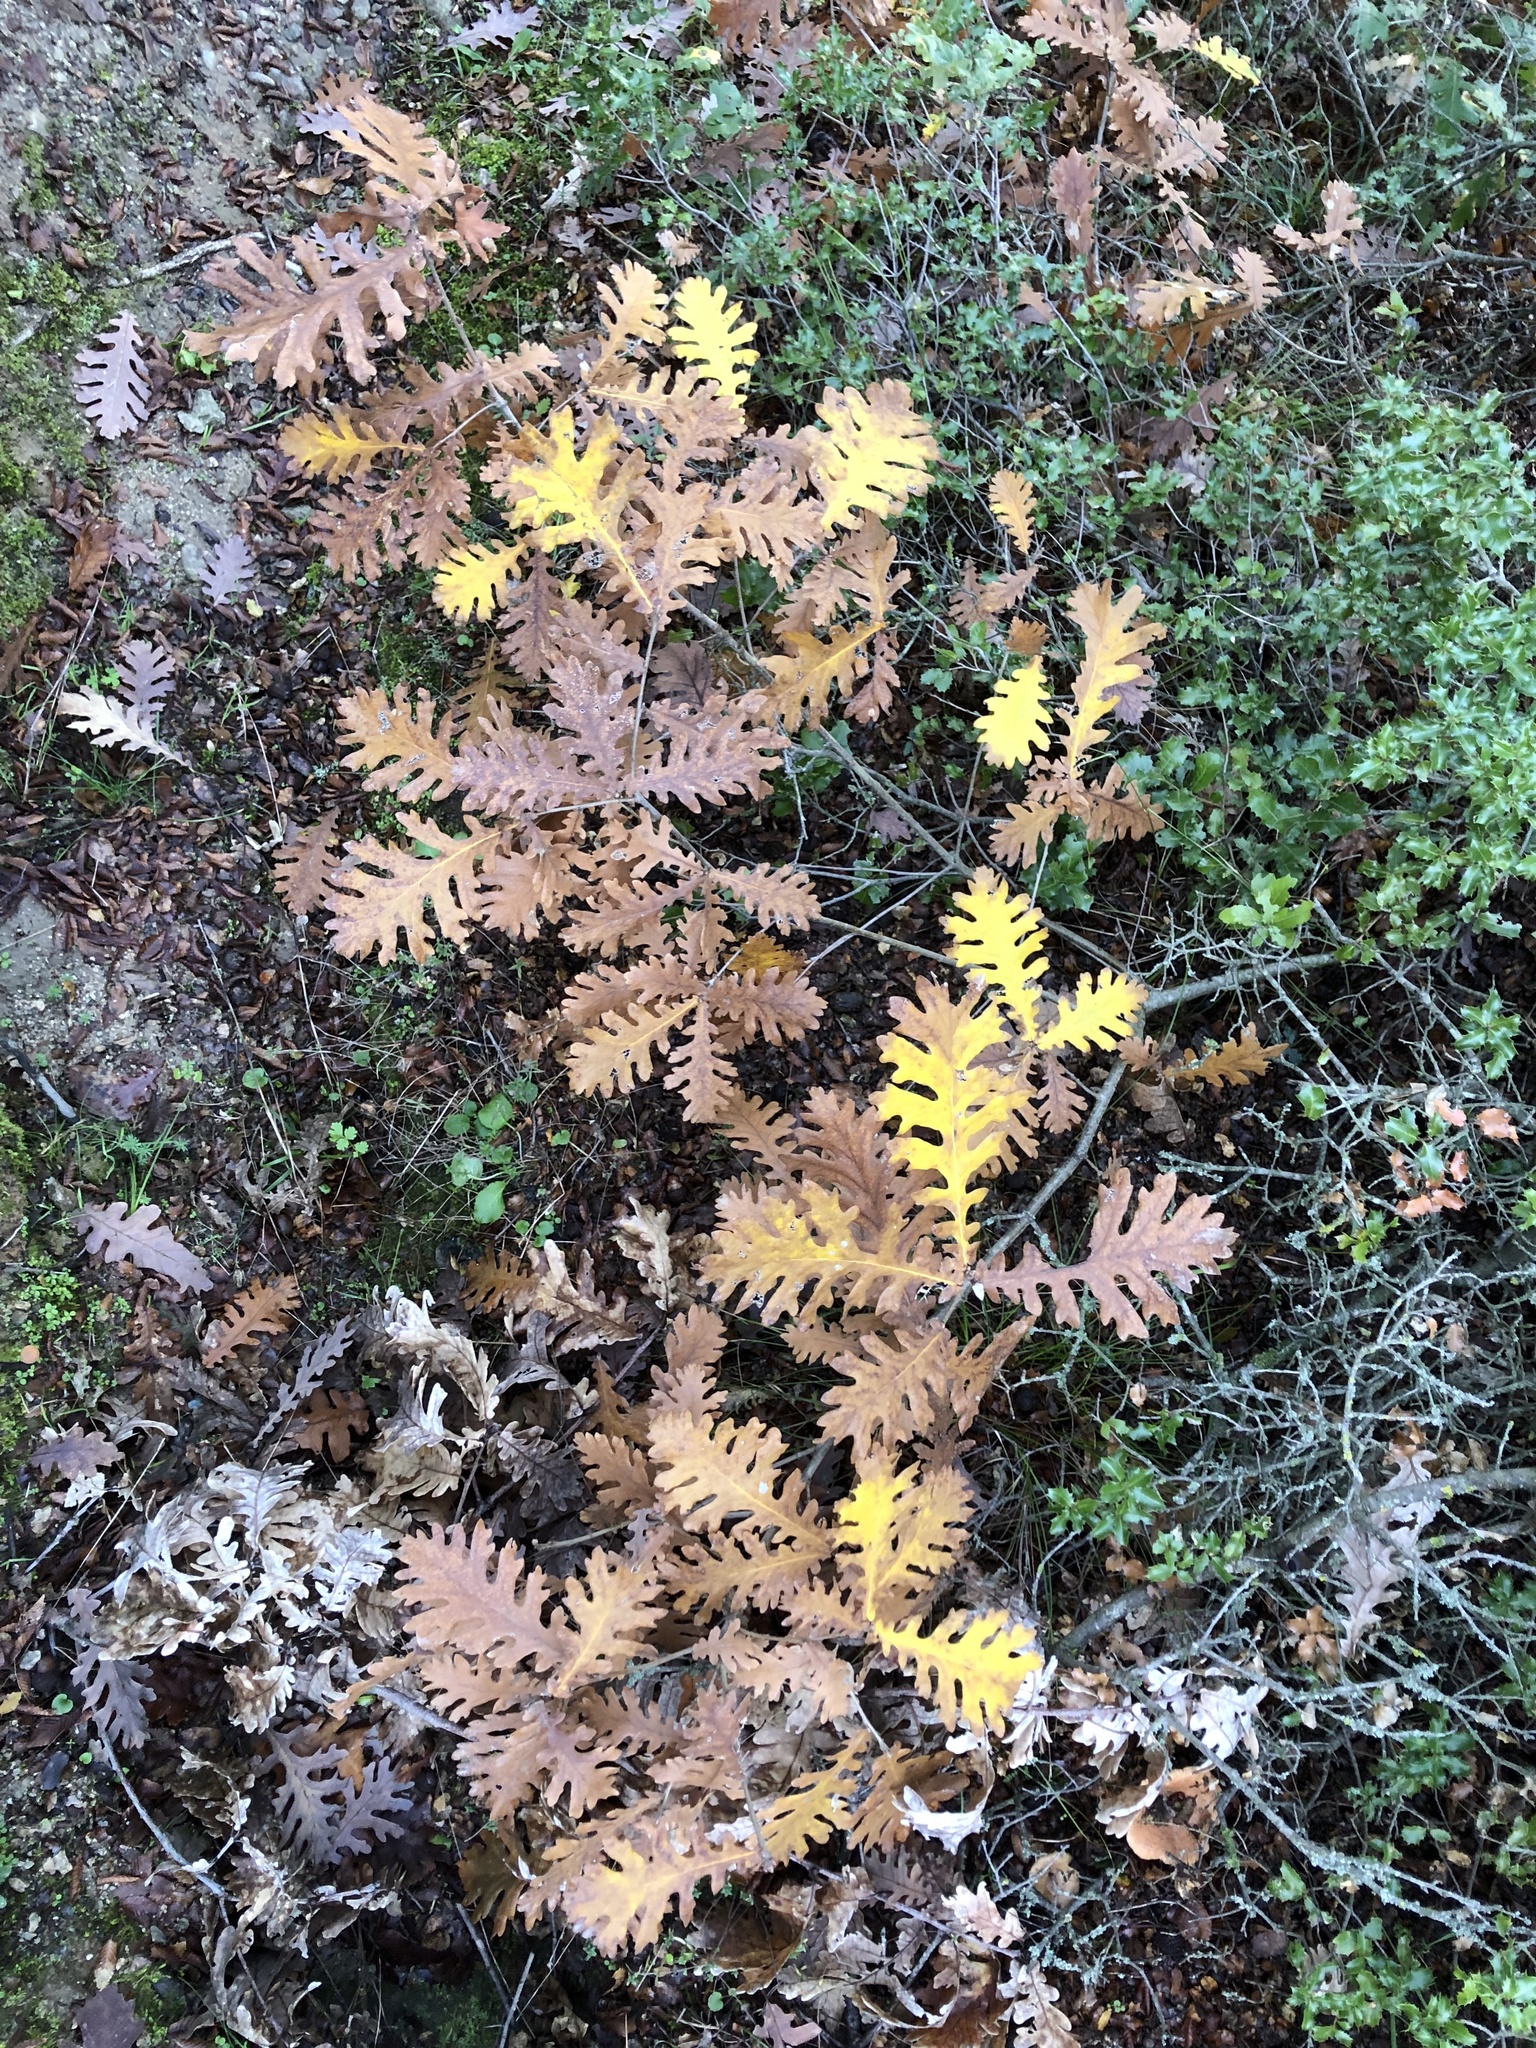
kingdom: Plantae
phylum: Tracheophyta
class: Magnoliopsida
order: Fagales
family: Fagaceae
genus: Quercus
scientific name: Quercus conferta
